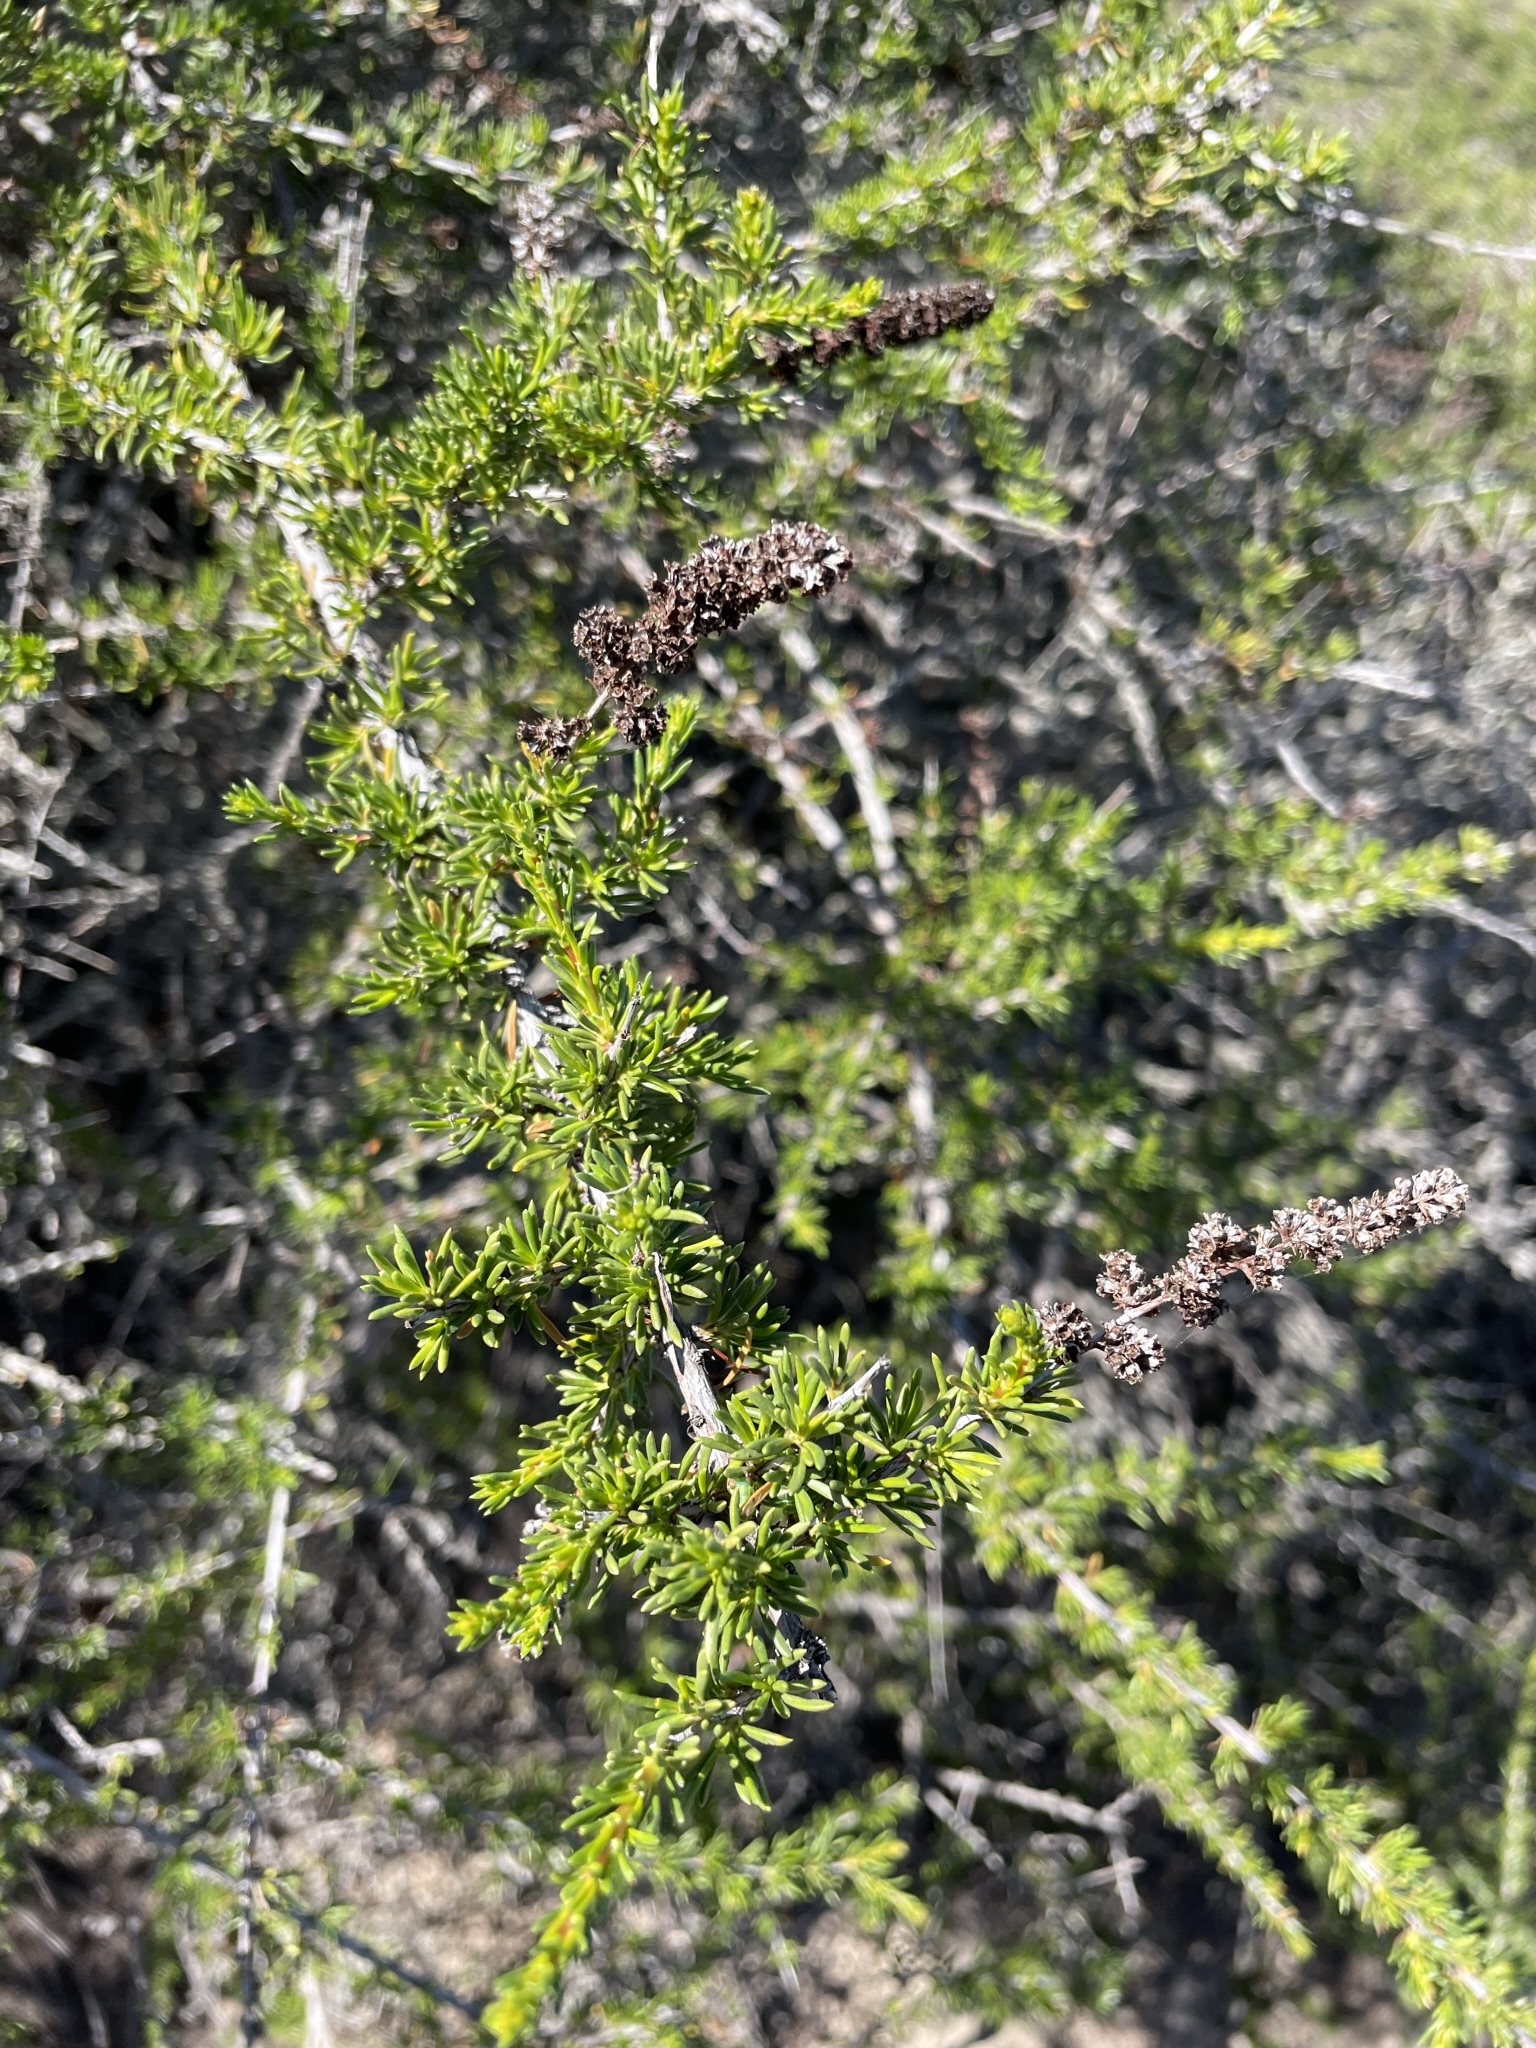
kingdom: Plantae
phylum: Tracheophyta
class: Magnoliopsida
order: Rosales
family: Rosaceae
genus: Adenostoma
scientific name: Adenostoma fasciculatum
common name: Chamise
